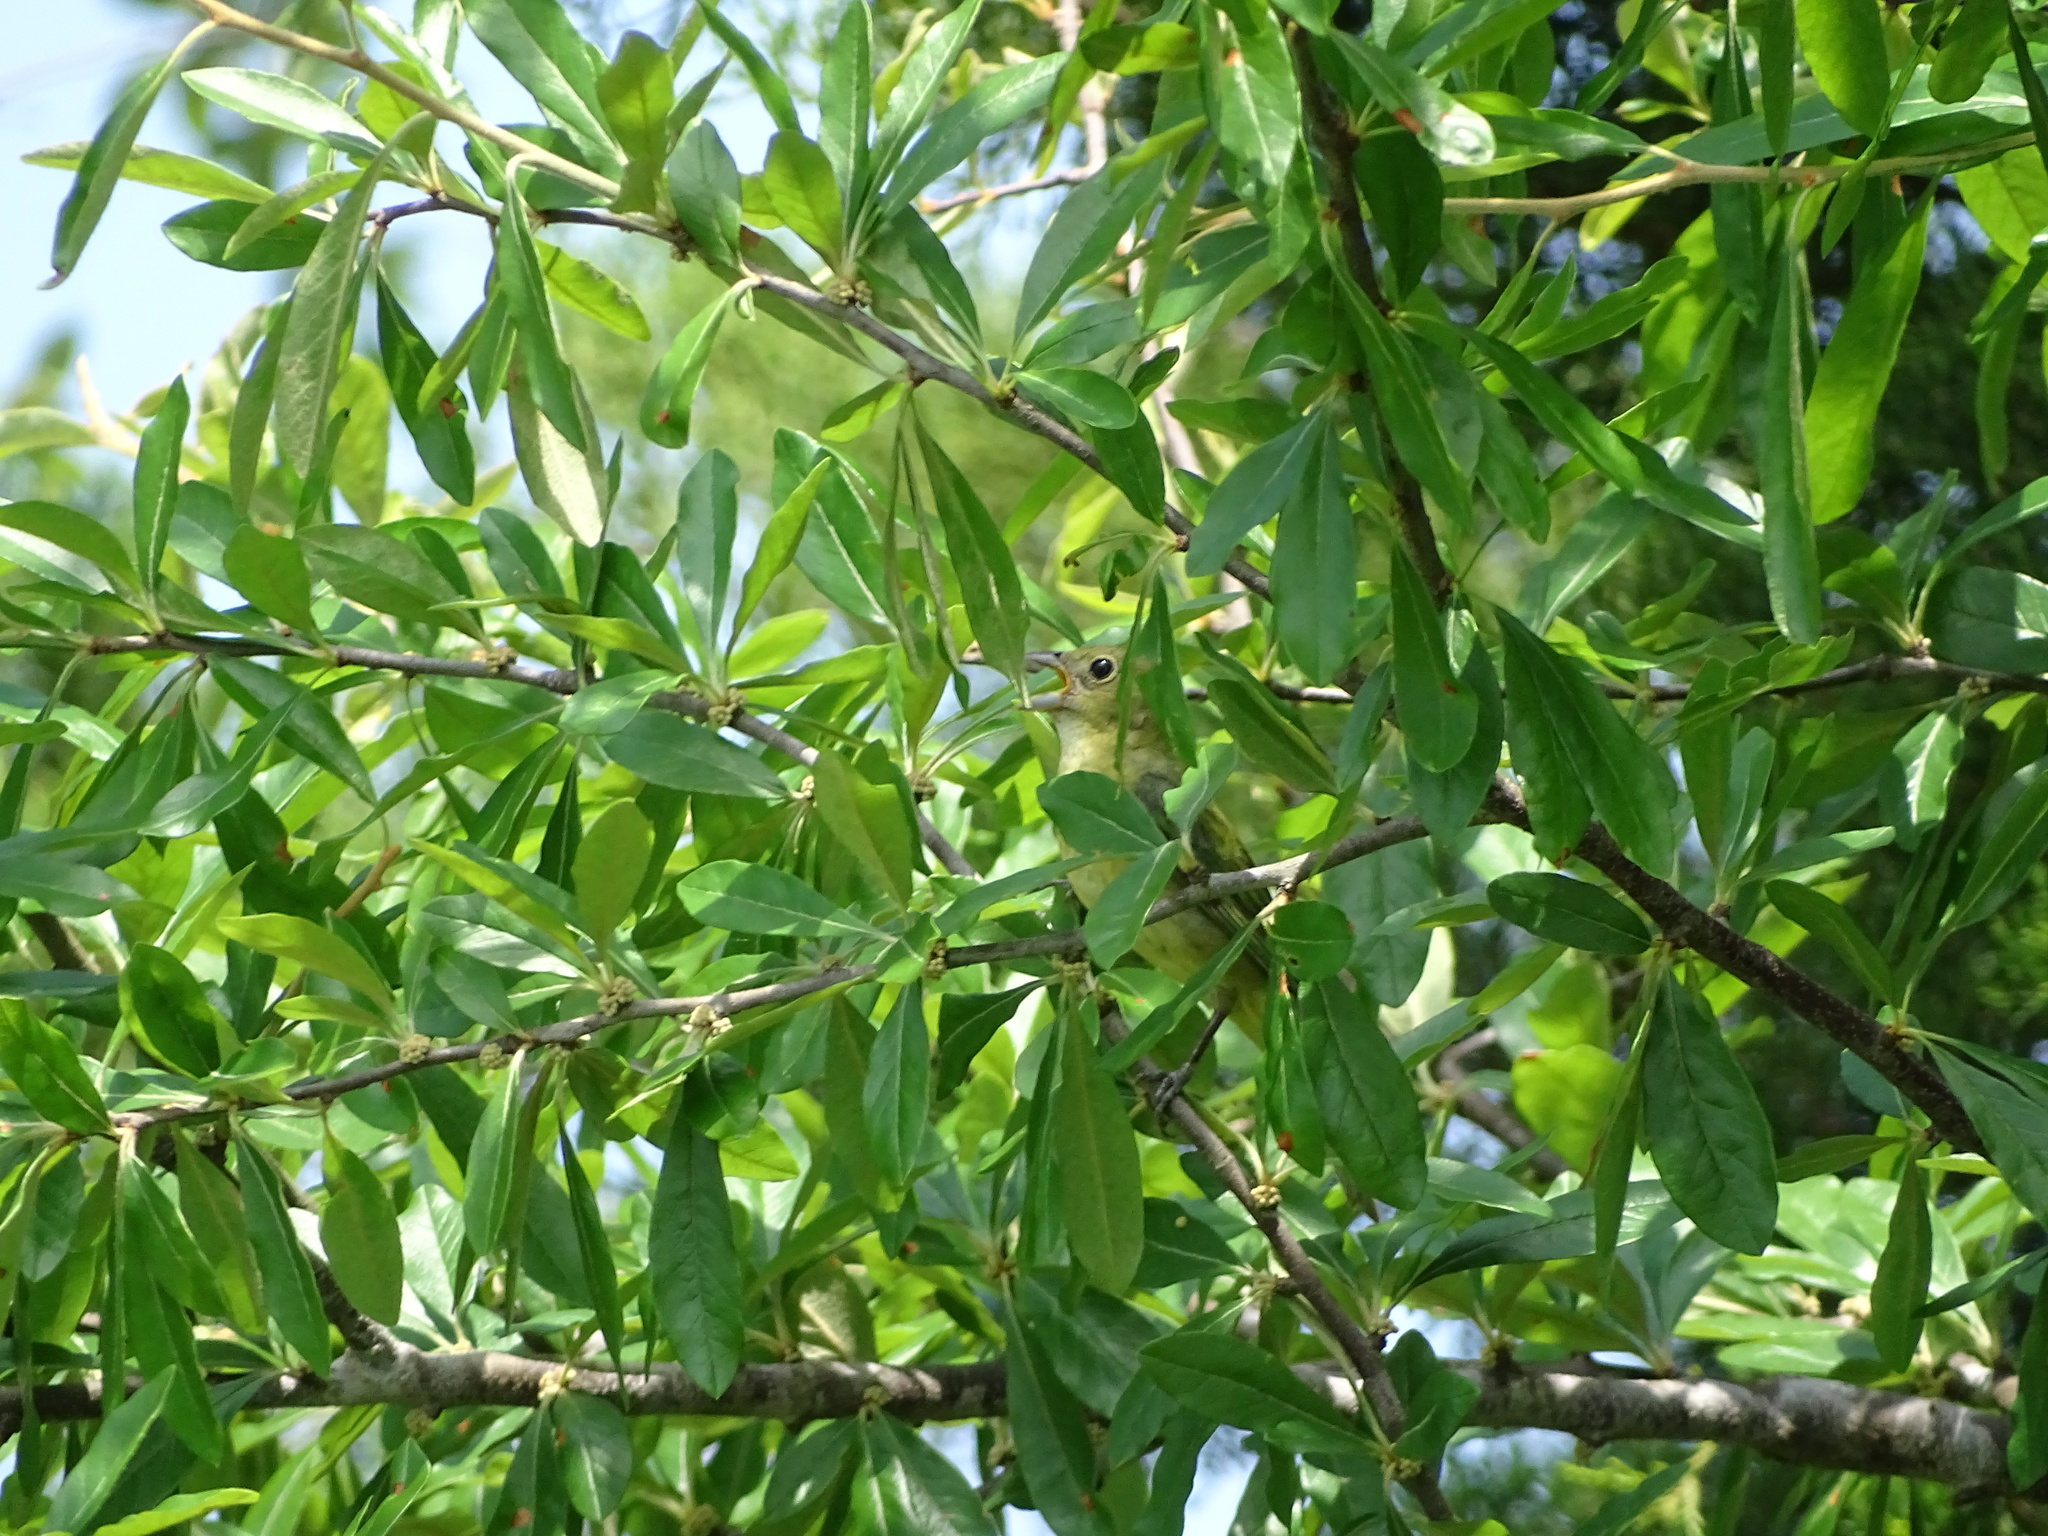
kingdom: Animalia
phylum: Chordata
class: Aves
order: Passeriformes
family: Cardinalidae
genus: Passerina
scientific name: Passerina ciris
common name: Painted bunting
